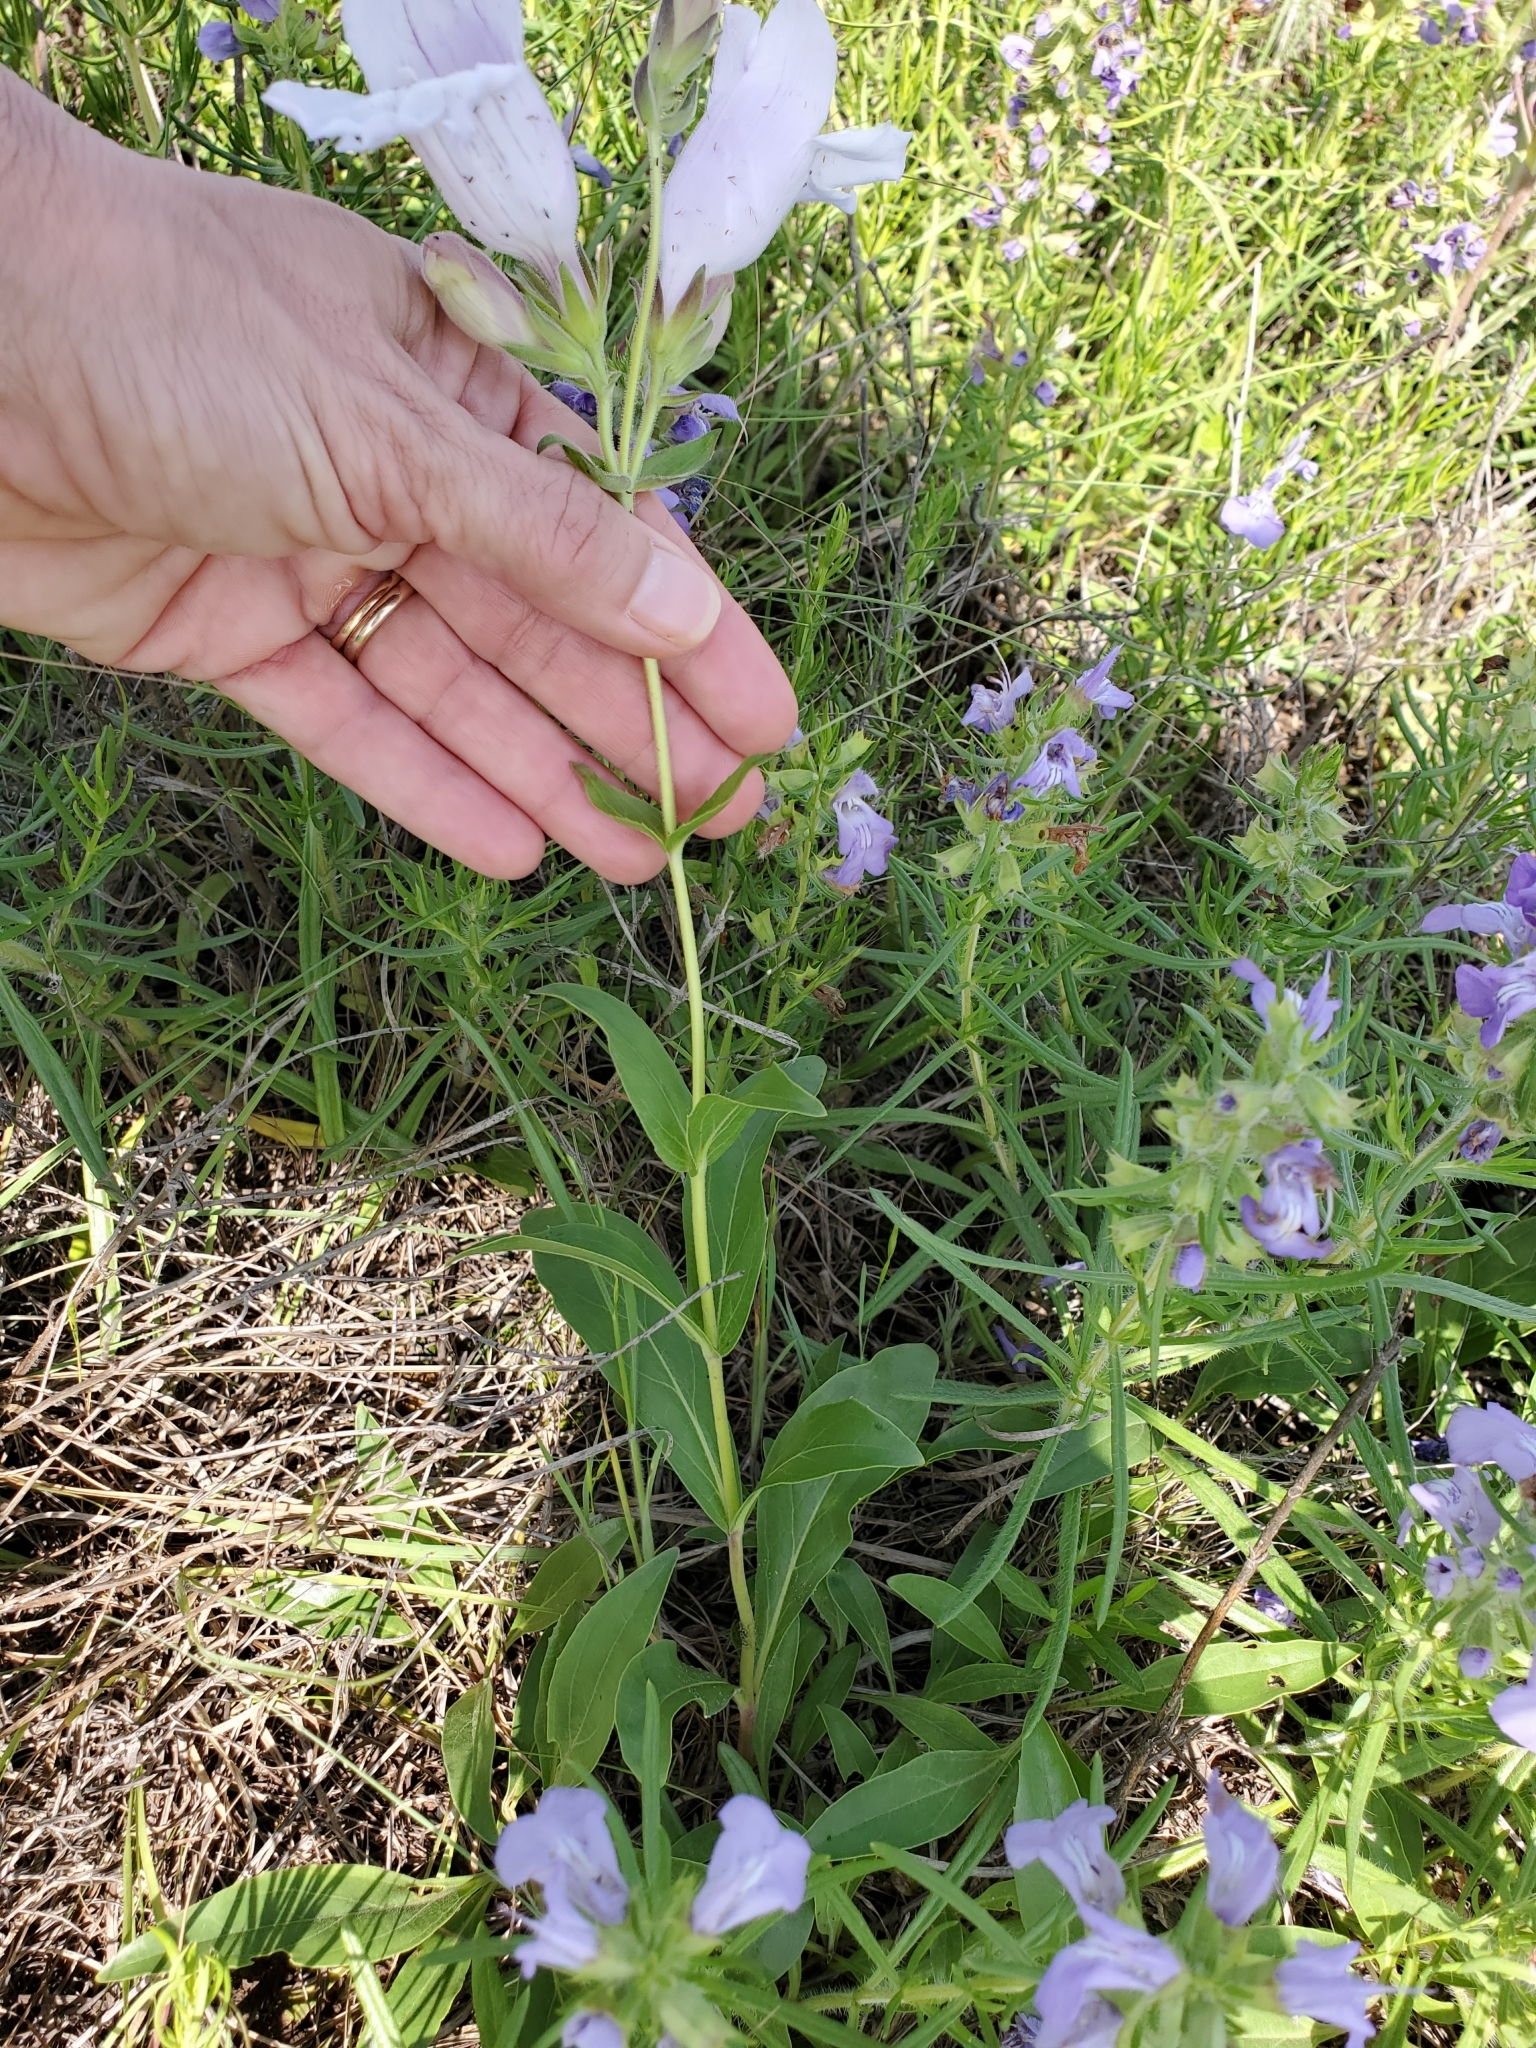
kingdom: Plantae
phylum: Tracheophyta
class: Magnoliopsida
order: Lamiales
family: Plantaginaceae
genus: Penstemon
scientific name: Penstemon cobaea
